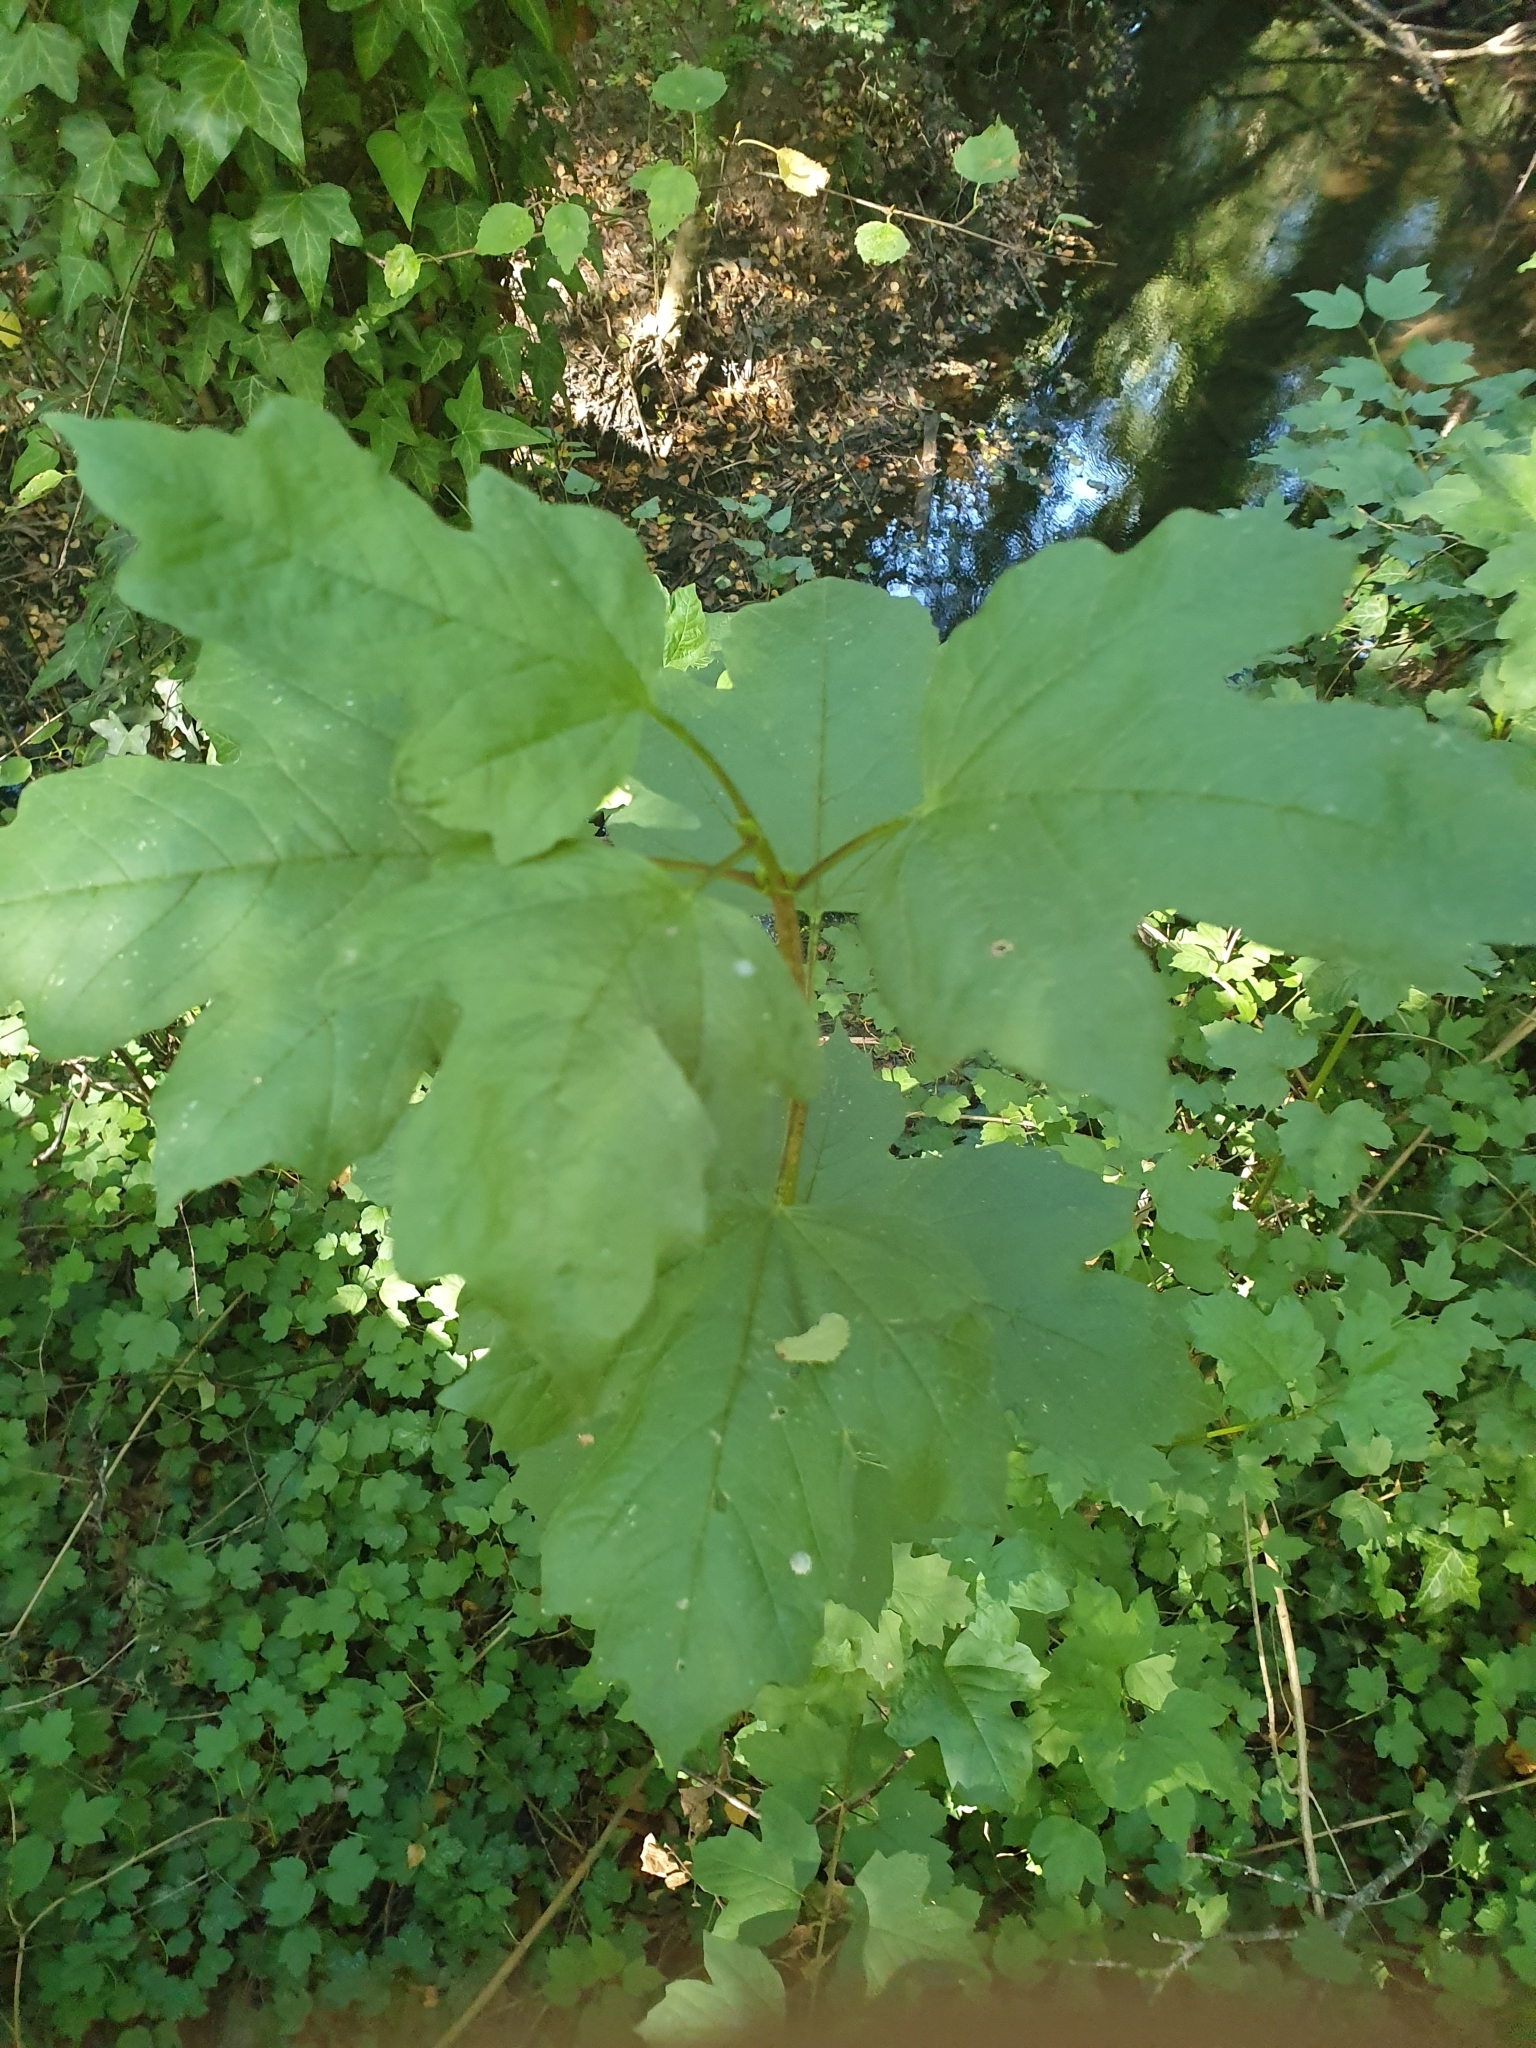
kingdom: Plantae
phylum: Tracheophyta
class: Magnoliopsida
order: Dipsacales
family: Viburnaceae
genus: Viburnum
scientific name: Viburnum opulus
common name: Guelder-rose
